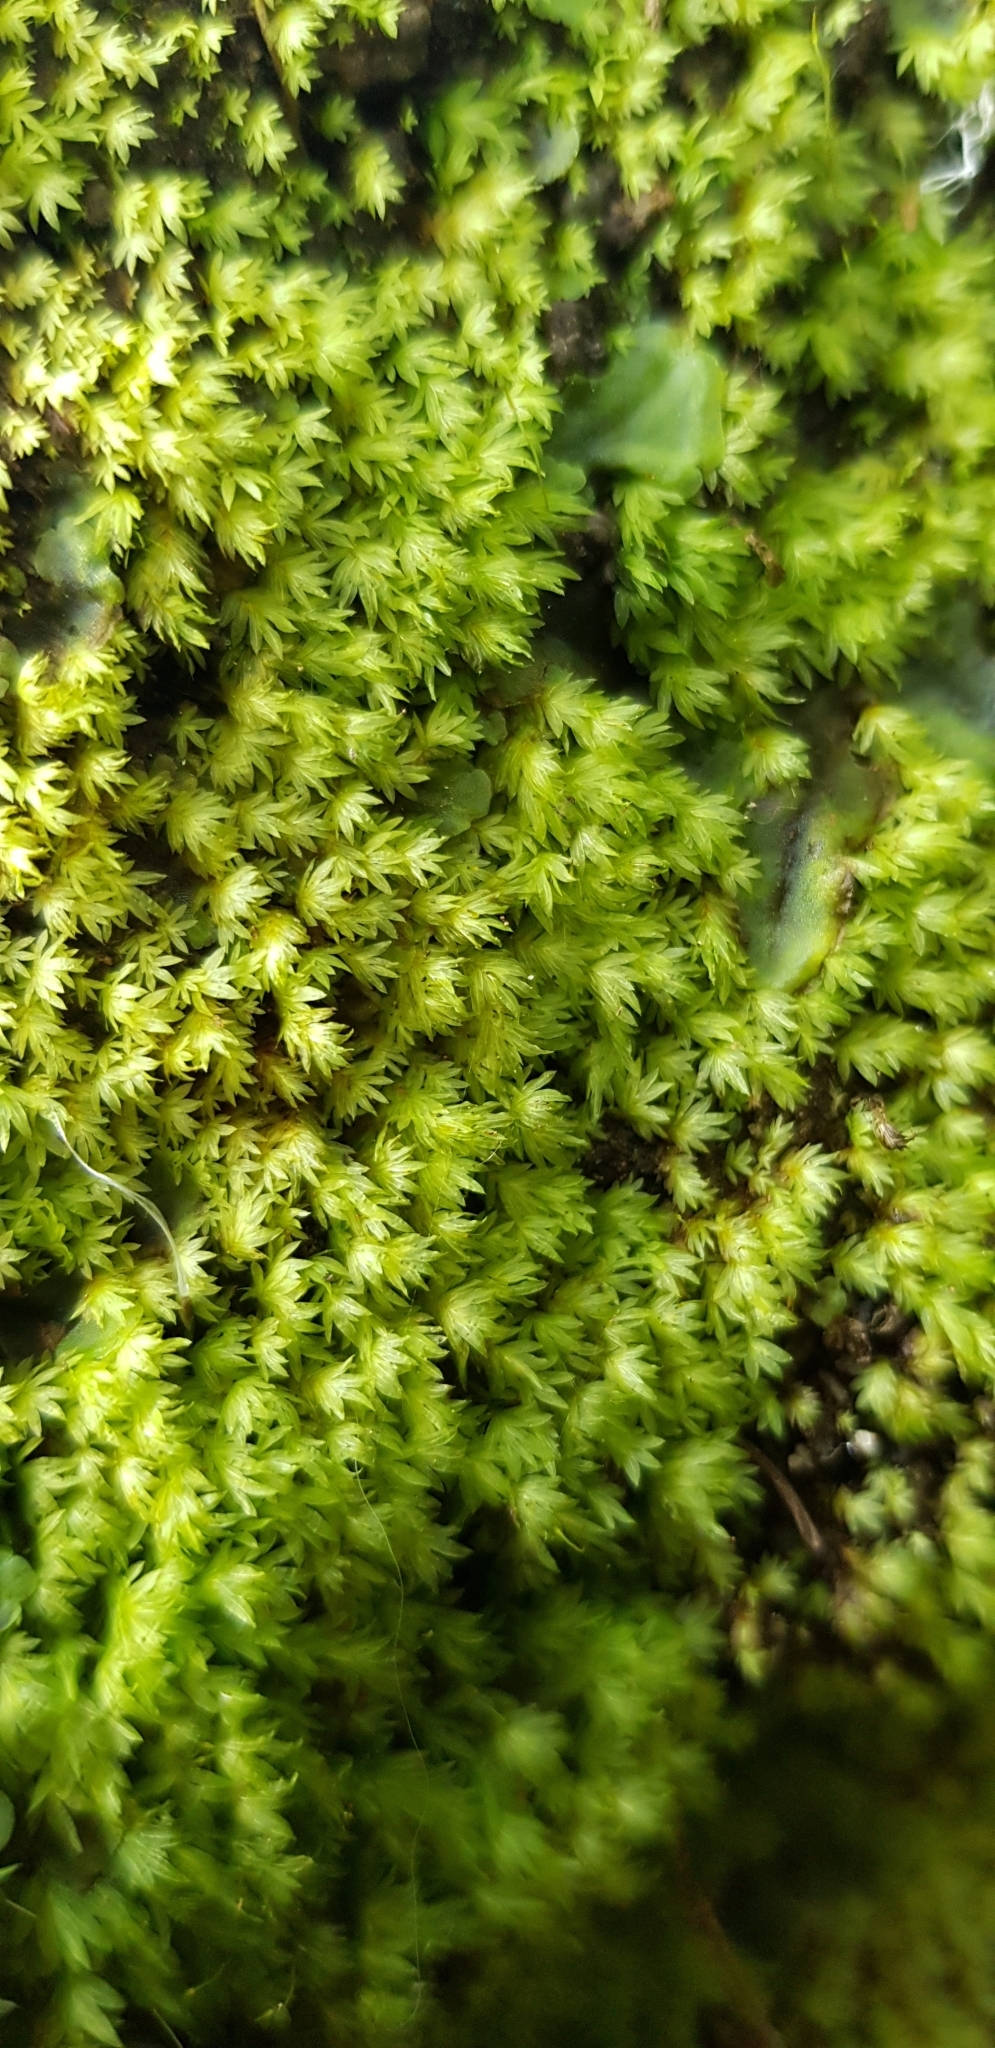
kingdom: Plantae
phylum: Bryophyta
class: Bryopsida
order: Dicranales
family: Fissidentaceae
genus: Fissidens
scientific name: Fissidens bryoides
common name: Lesser pocket moss
